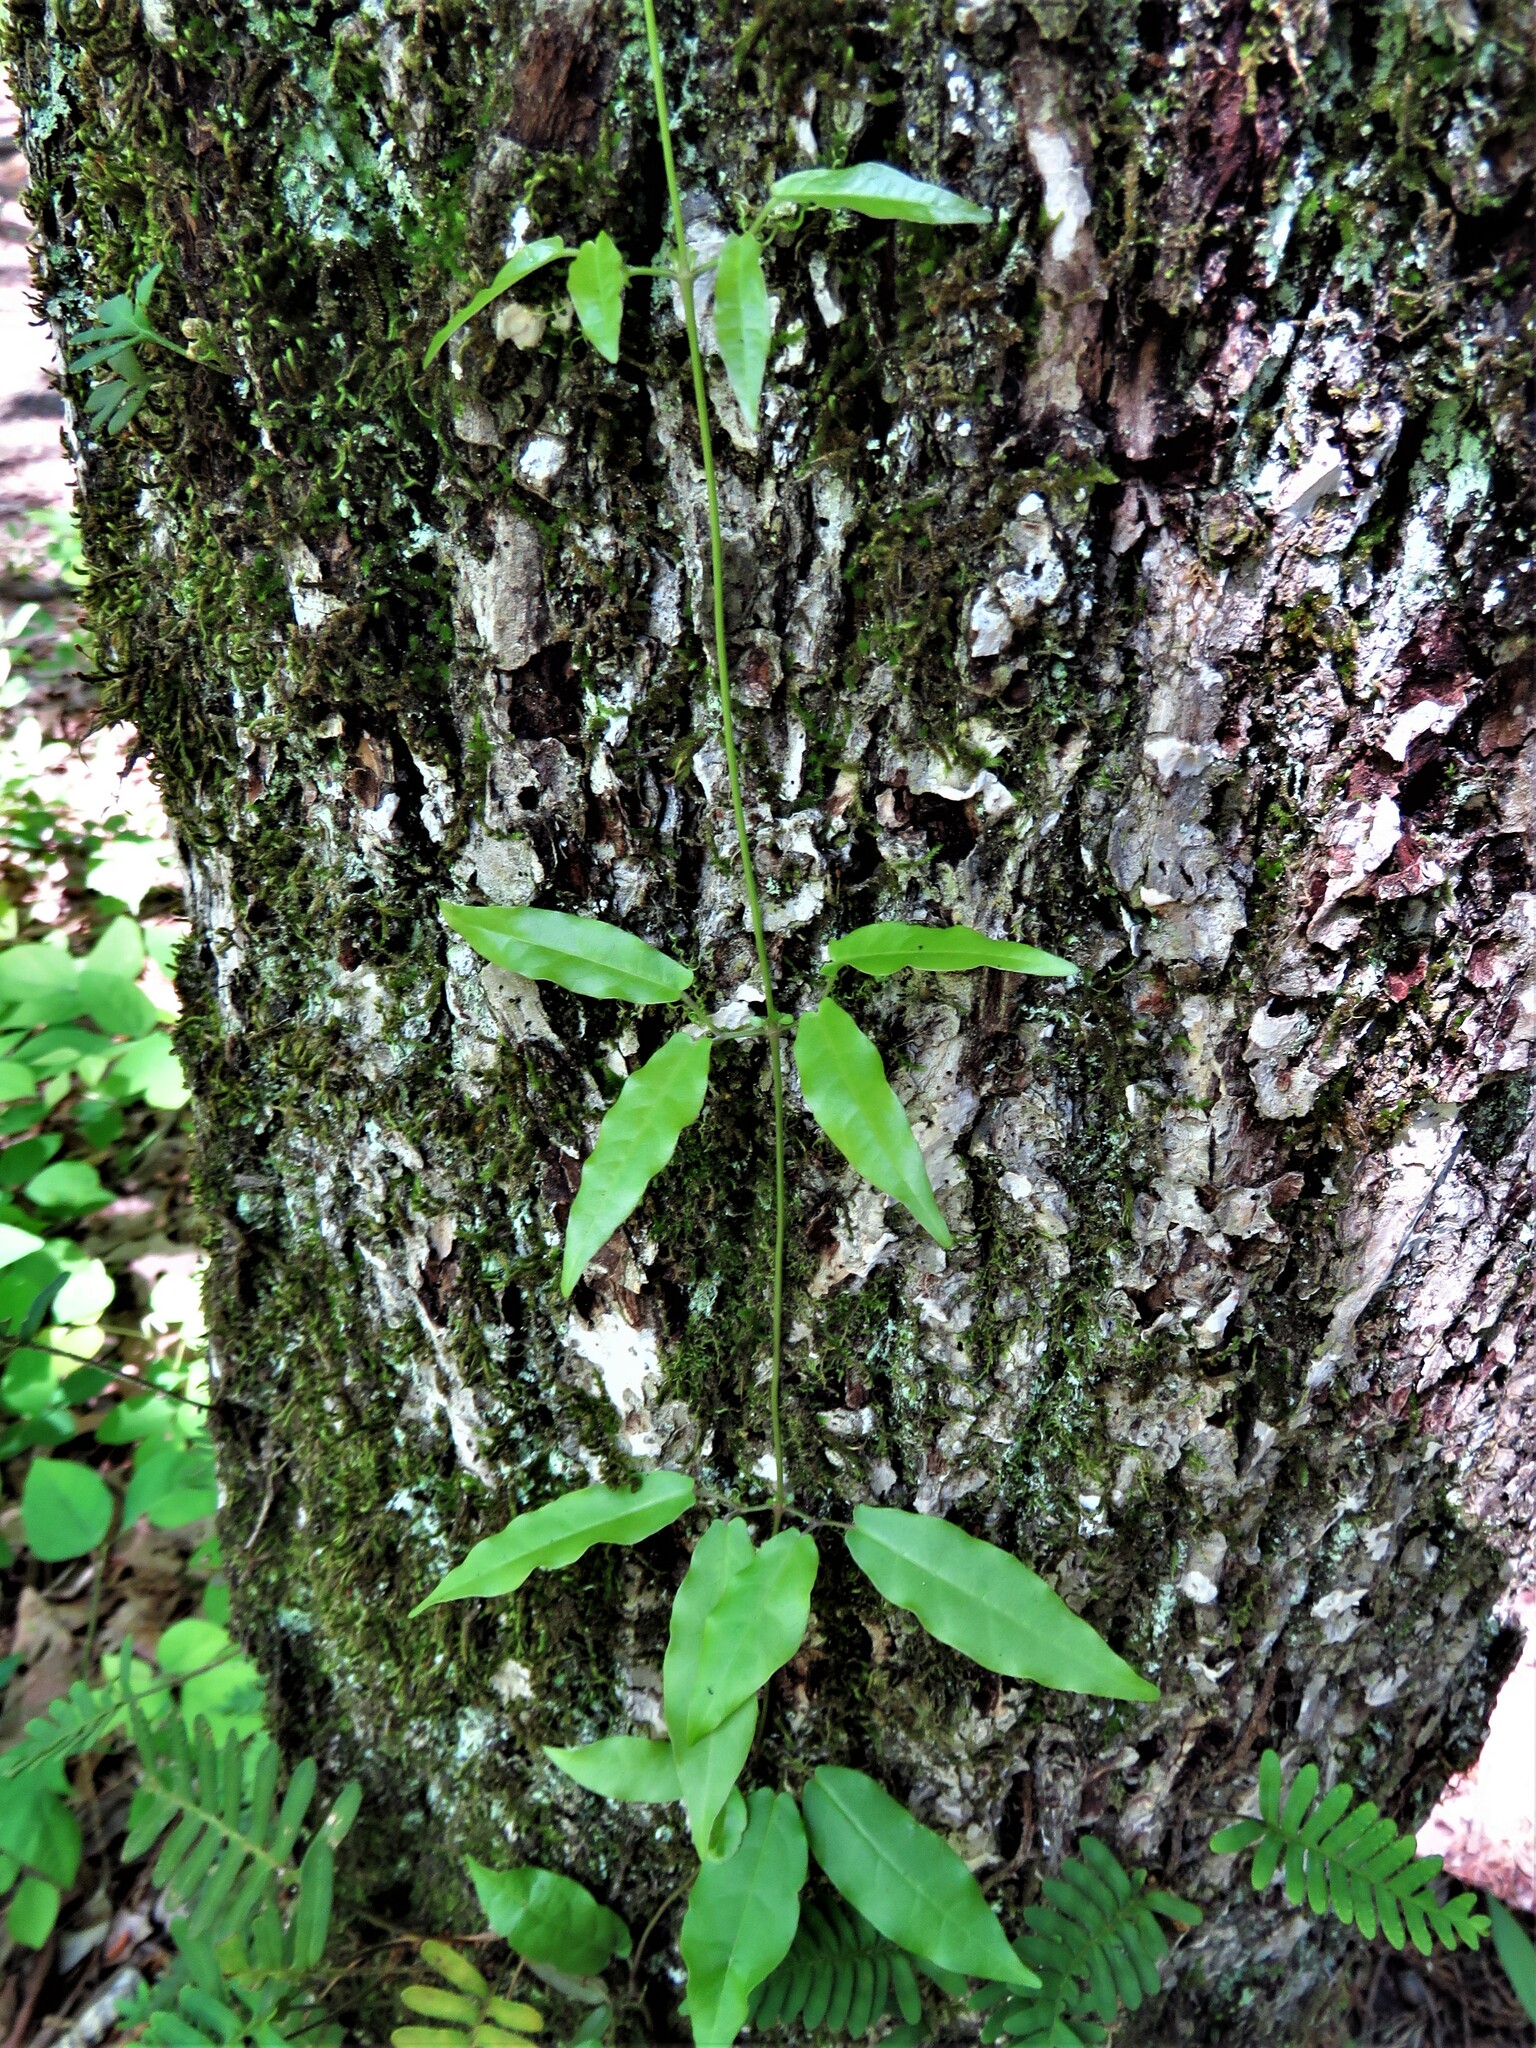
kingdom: Plantae
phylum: Tracheophyta
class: Magnoliopsida
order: Lamiales
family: Bignoniaceae
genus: Bignonia
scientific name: Bignonia capreolata
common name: Crossvine
